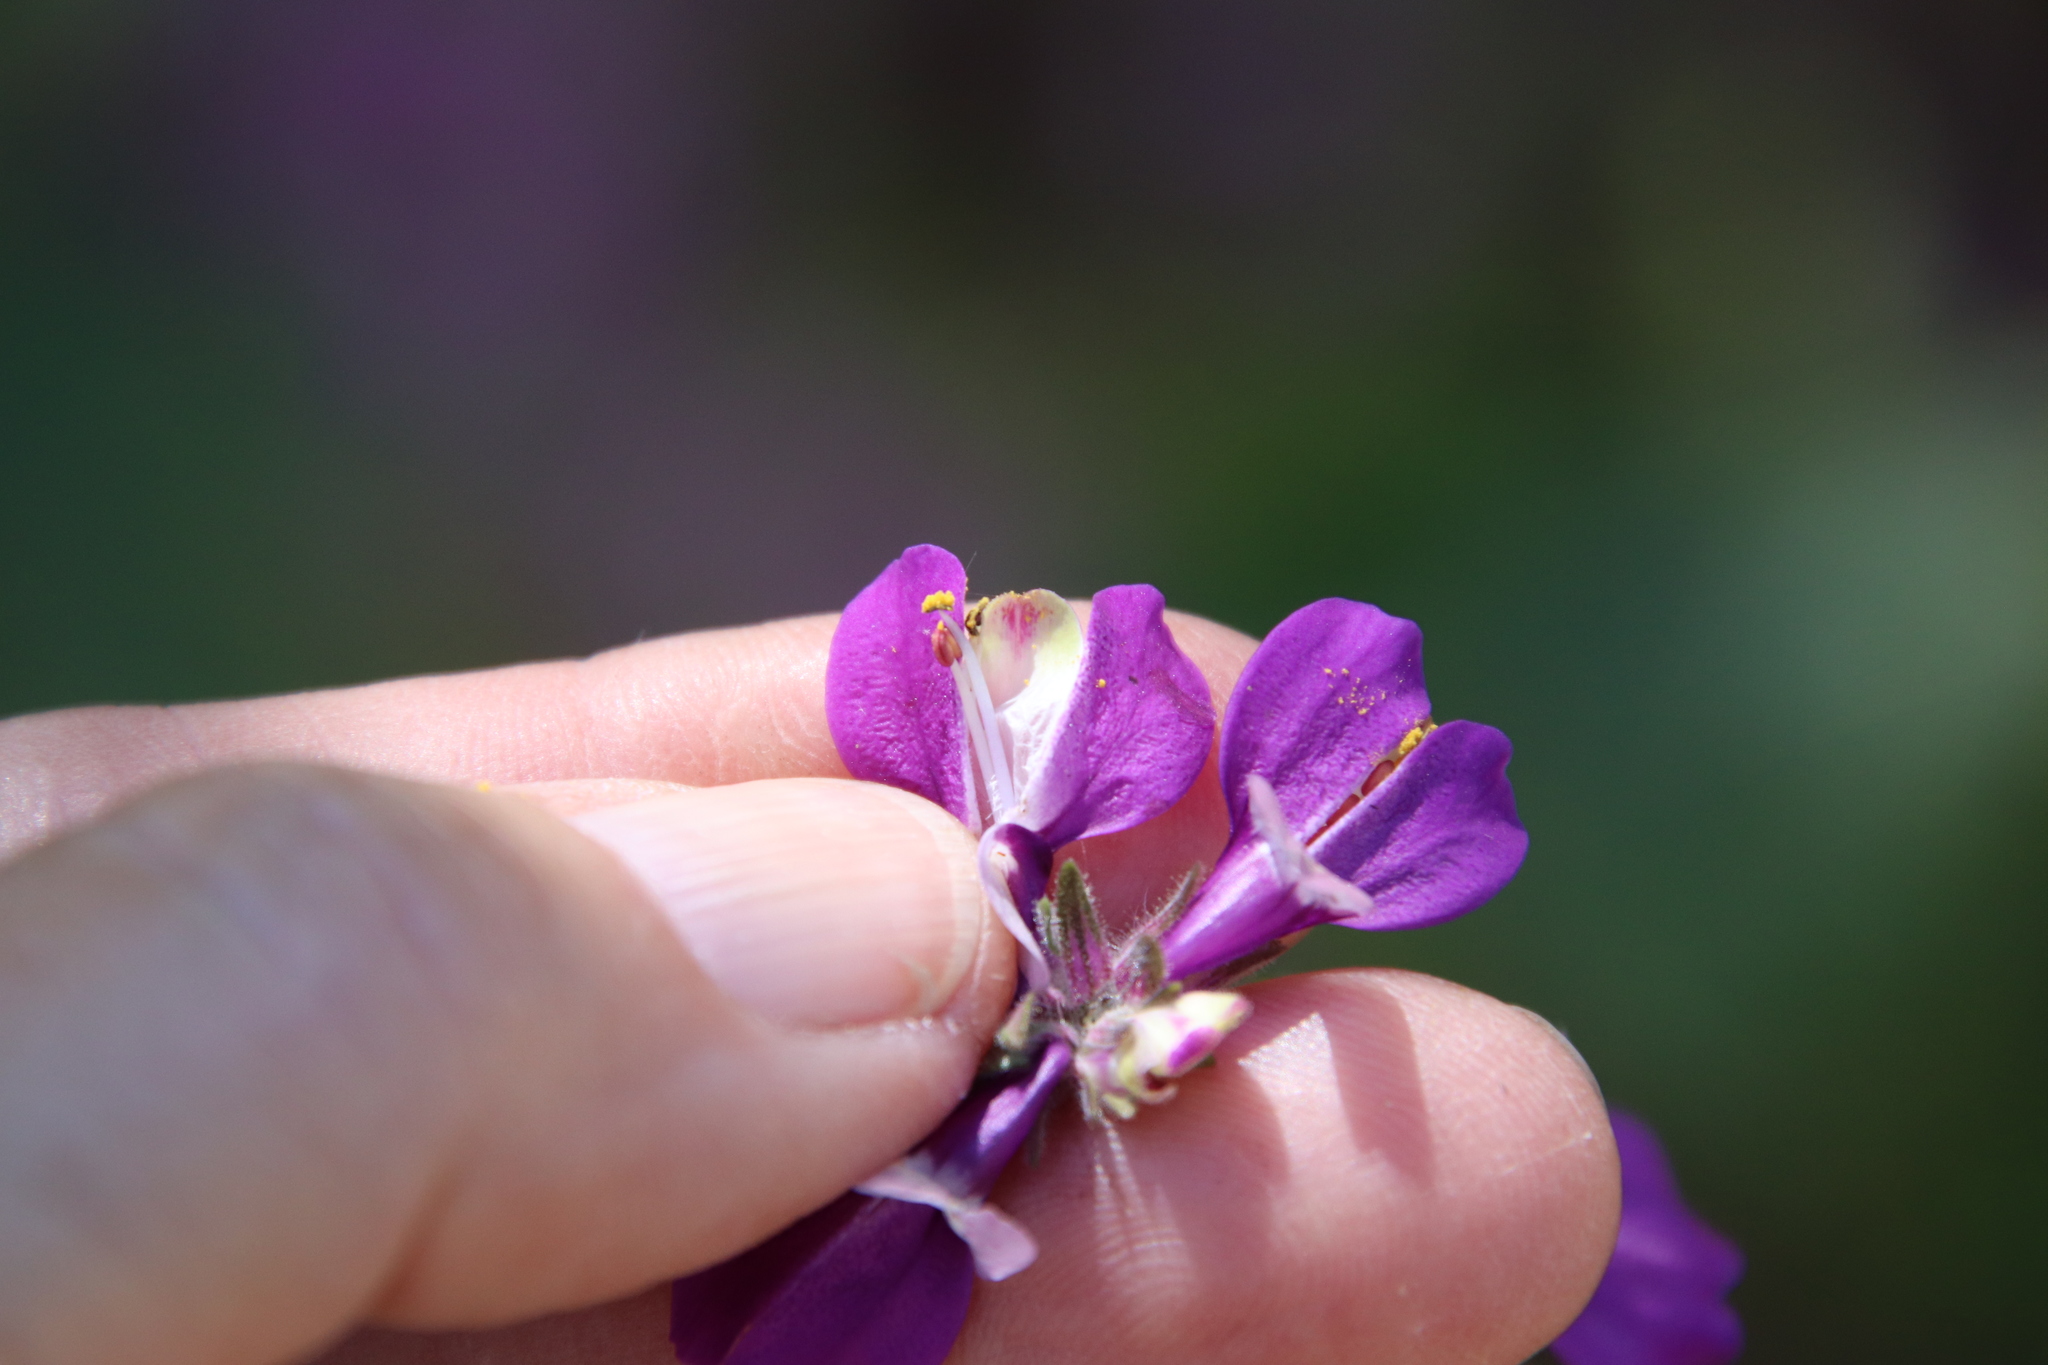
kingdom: Plantae
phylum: Tracheophyta
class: Magnoliopsida
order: Lamiales
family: Plantaginaceae
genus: Collinsia
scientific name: Collinsia heterophylla
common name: Chinese-houses
